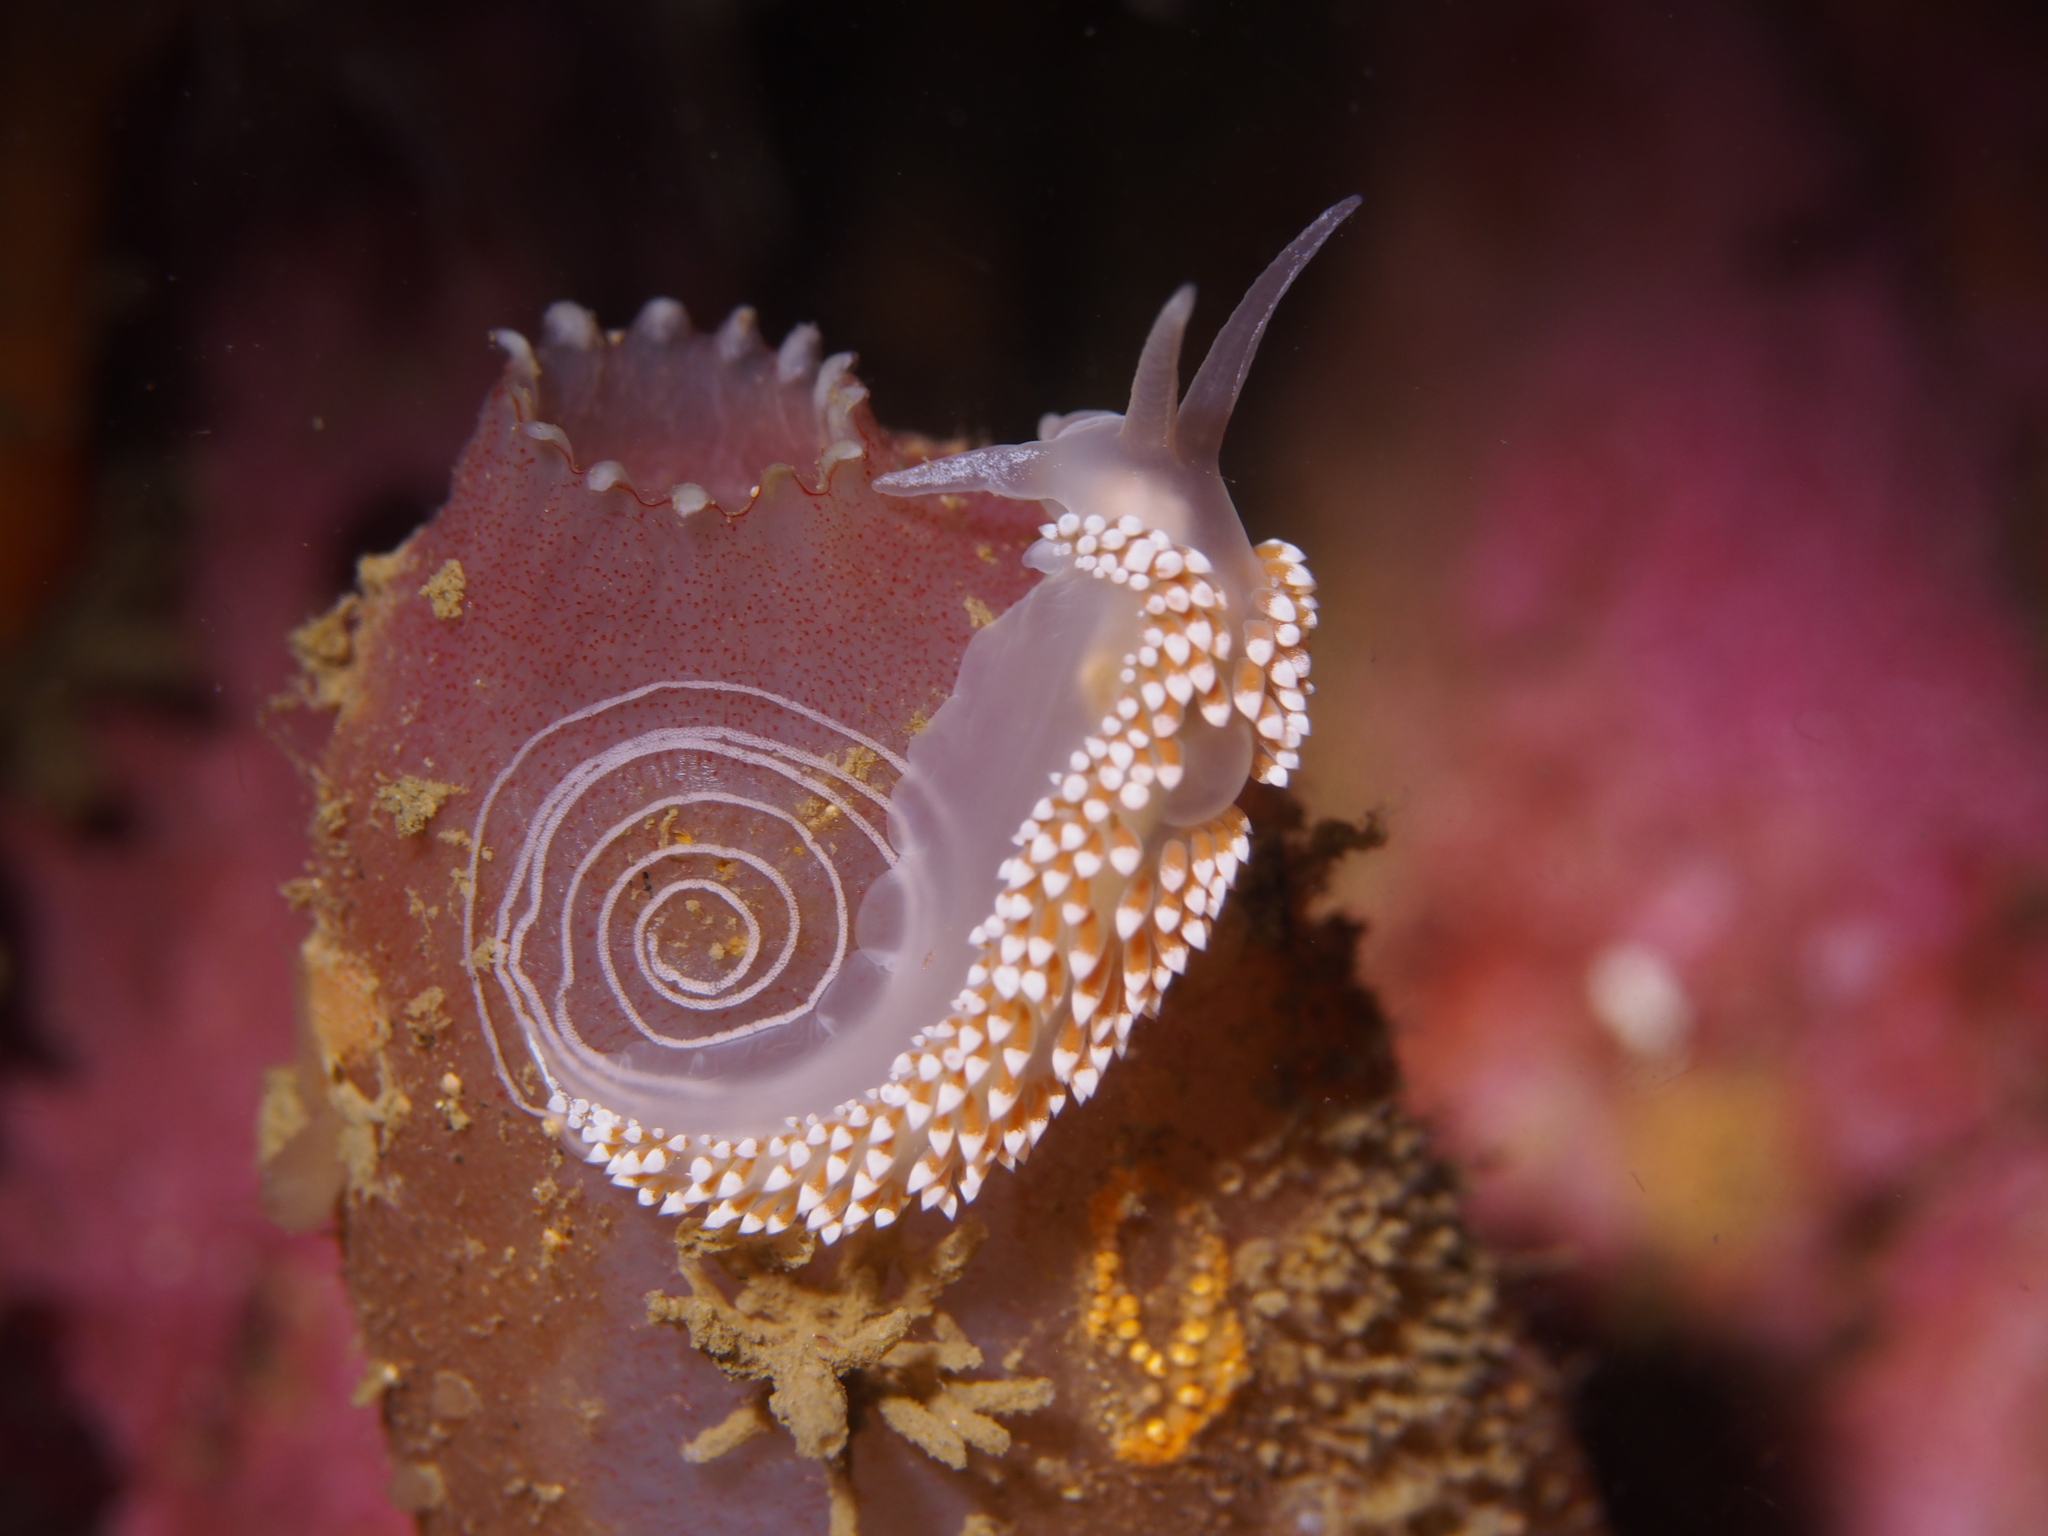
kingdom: Animalia
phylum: Mollusca
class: Gastropoda
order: Nudibranchia
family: Coryphellidae
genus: Coryphella
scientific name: Coryphella verrucosa
